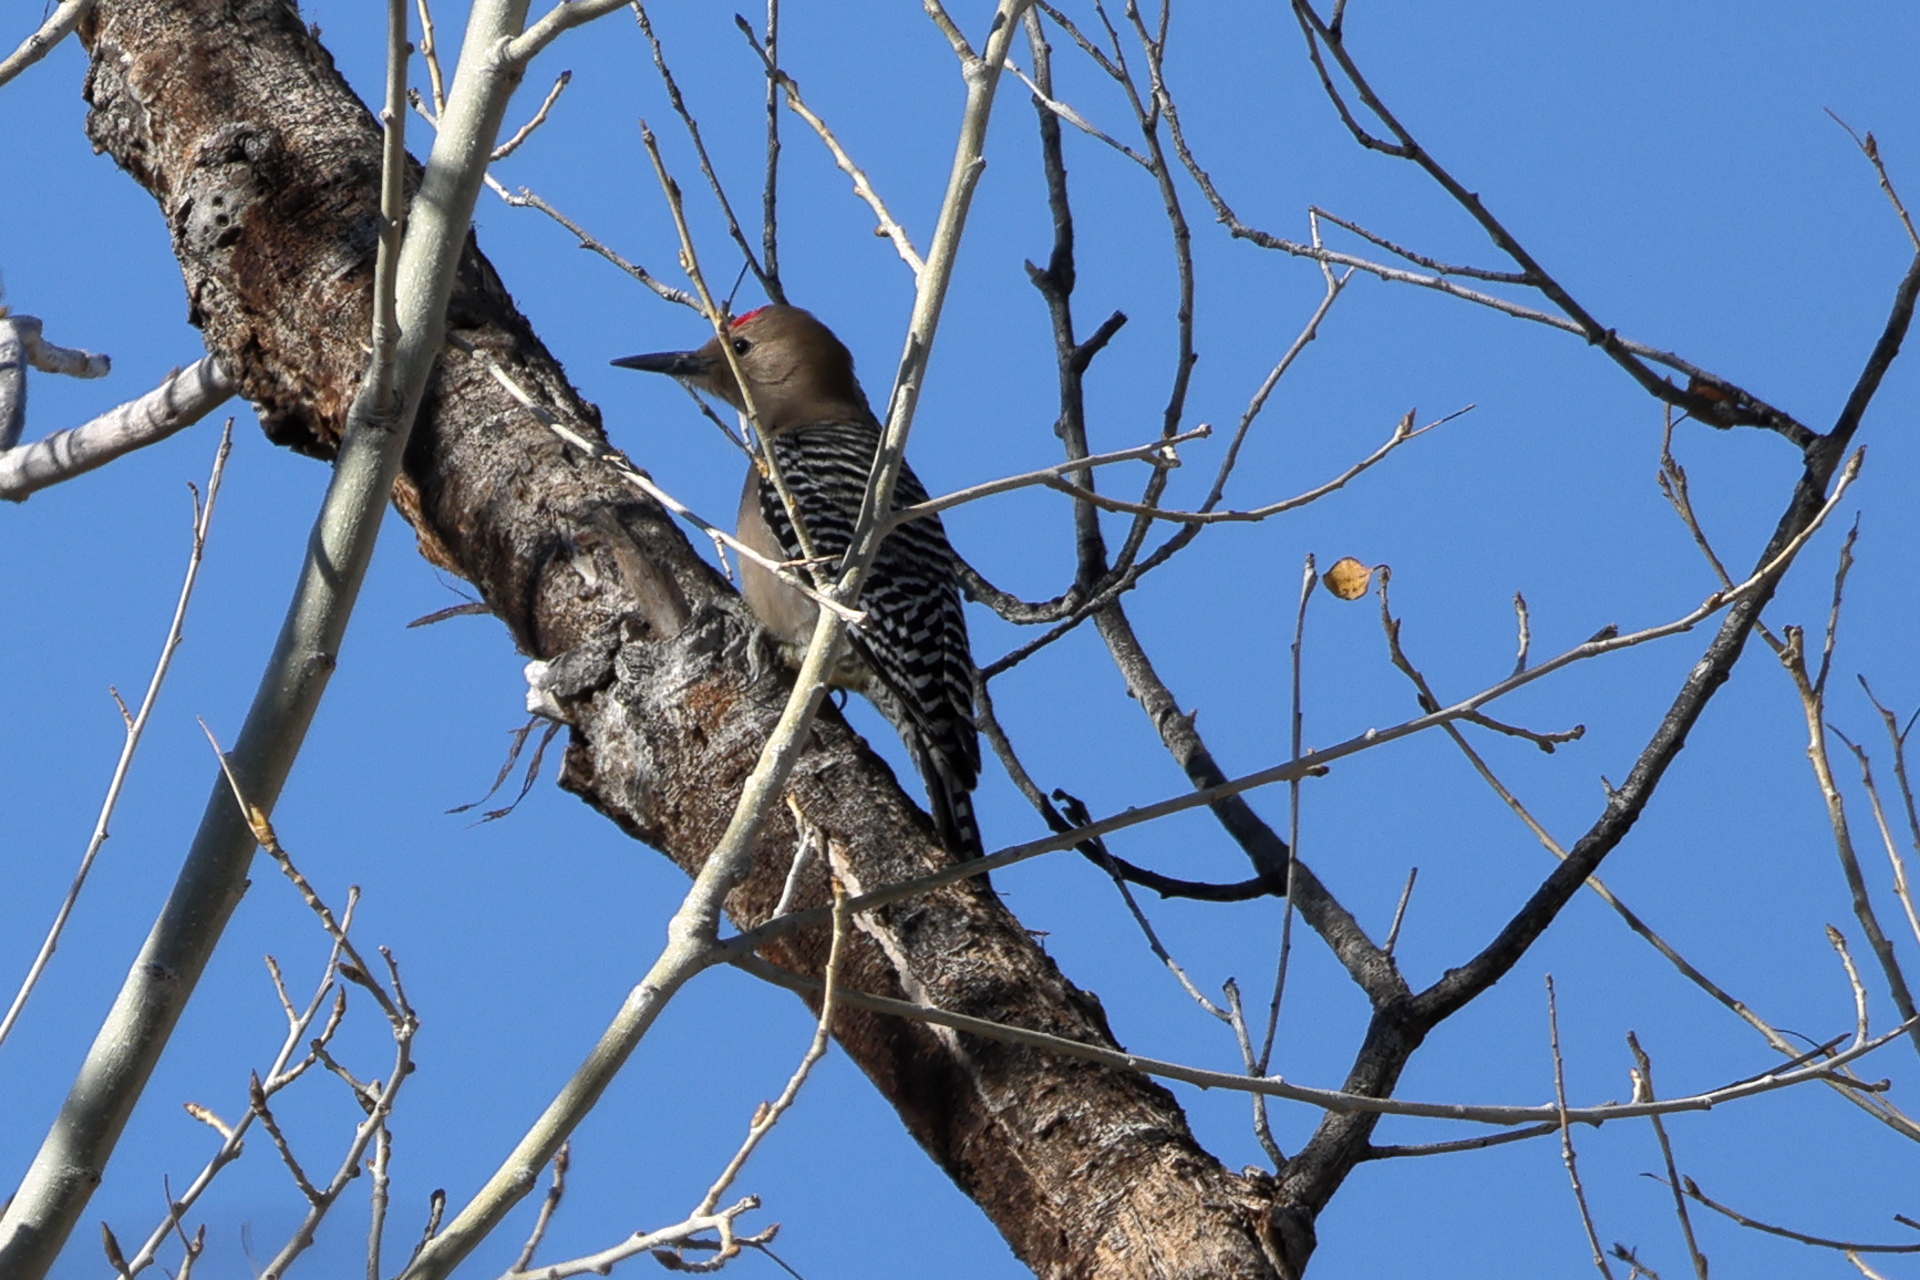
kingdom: Animalia
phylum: Chordata
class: Aves
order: Piciformes
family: Picidae
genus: Melanerpes
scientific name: Melanerpes uropygialis
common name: Gila woodpecker
